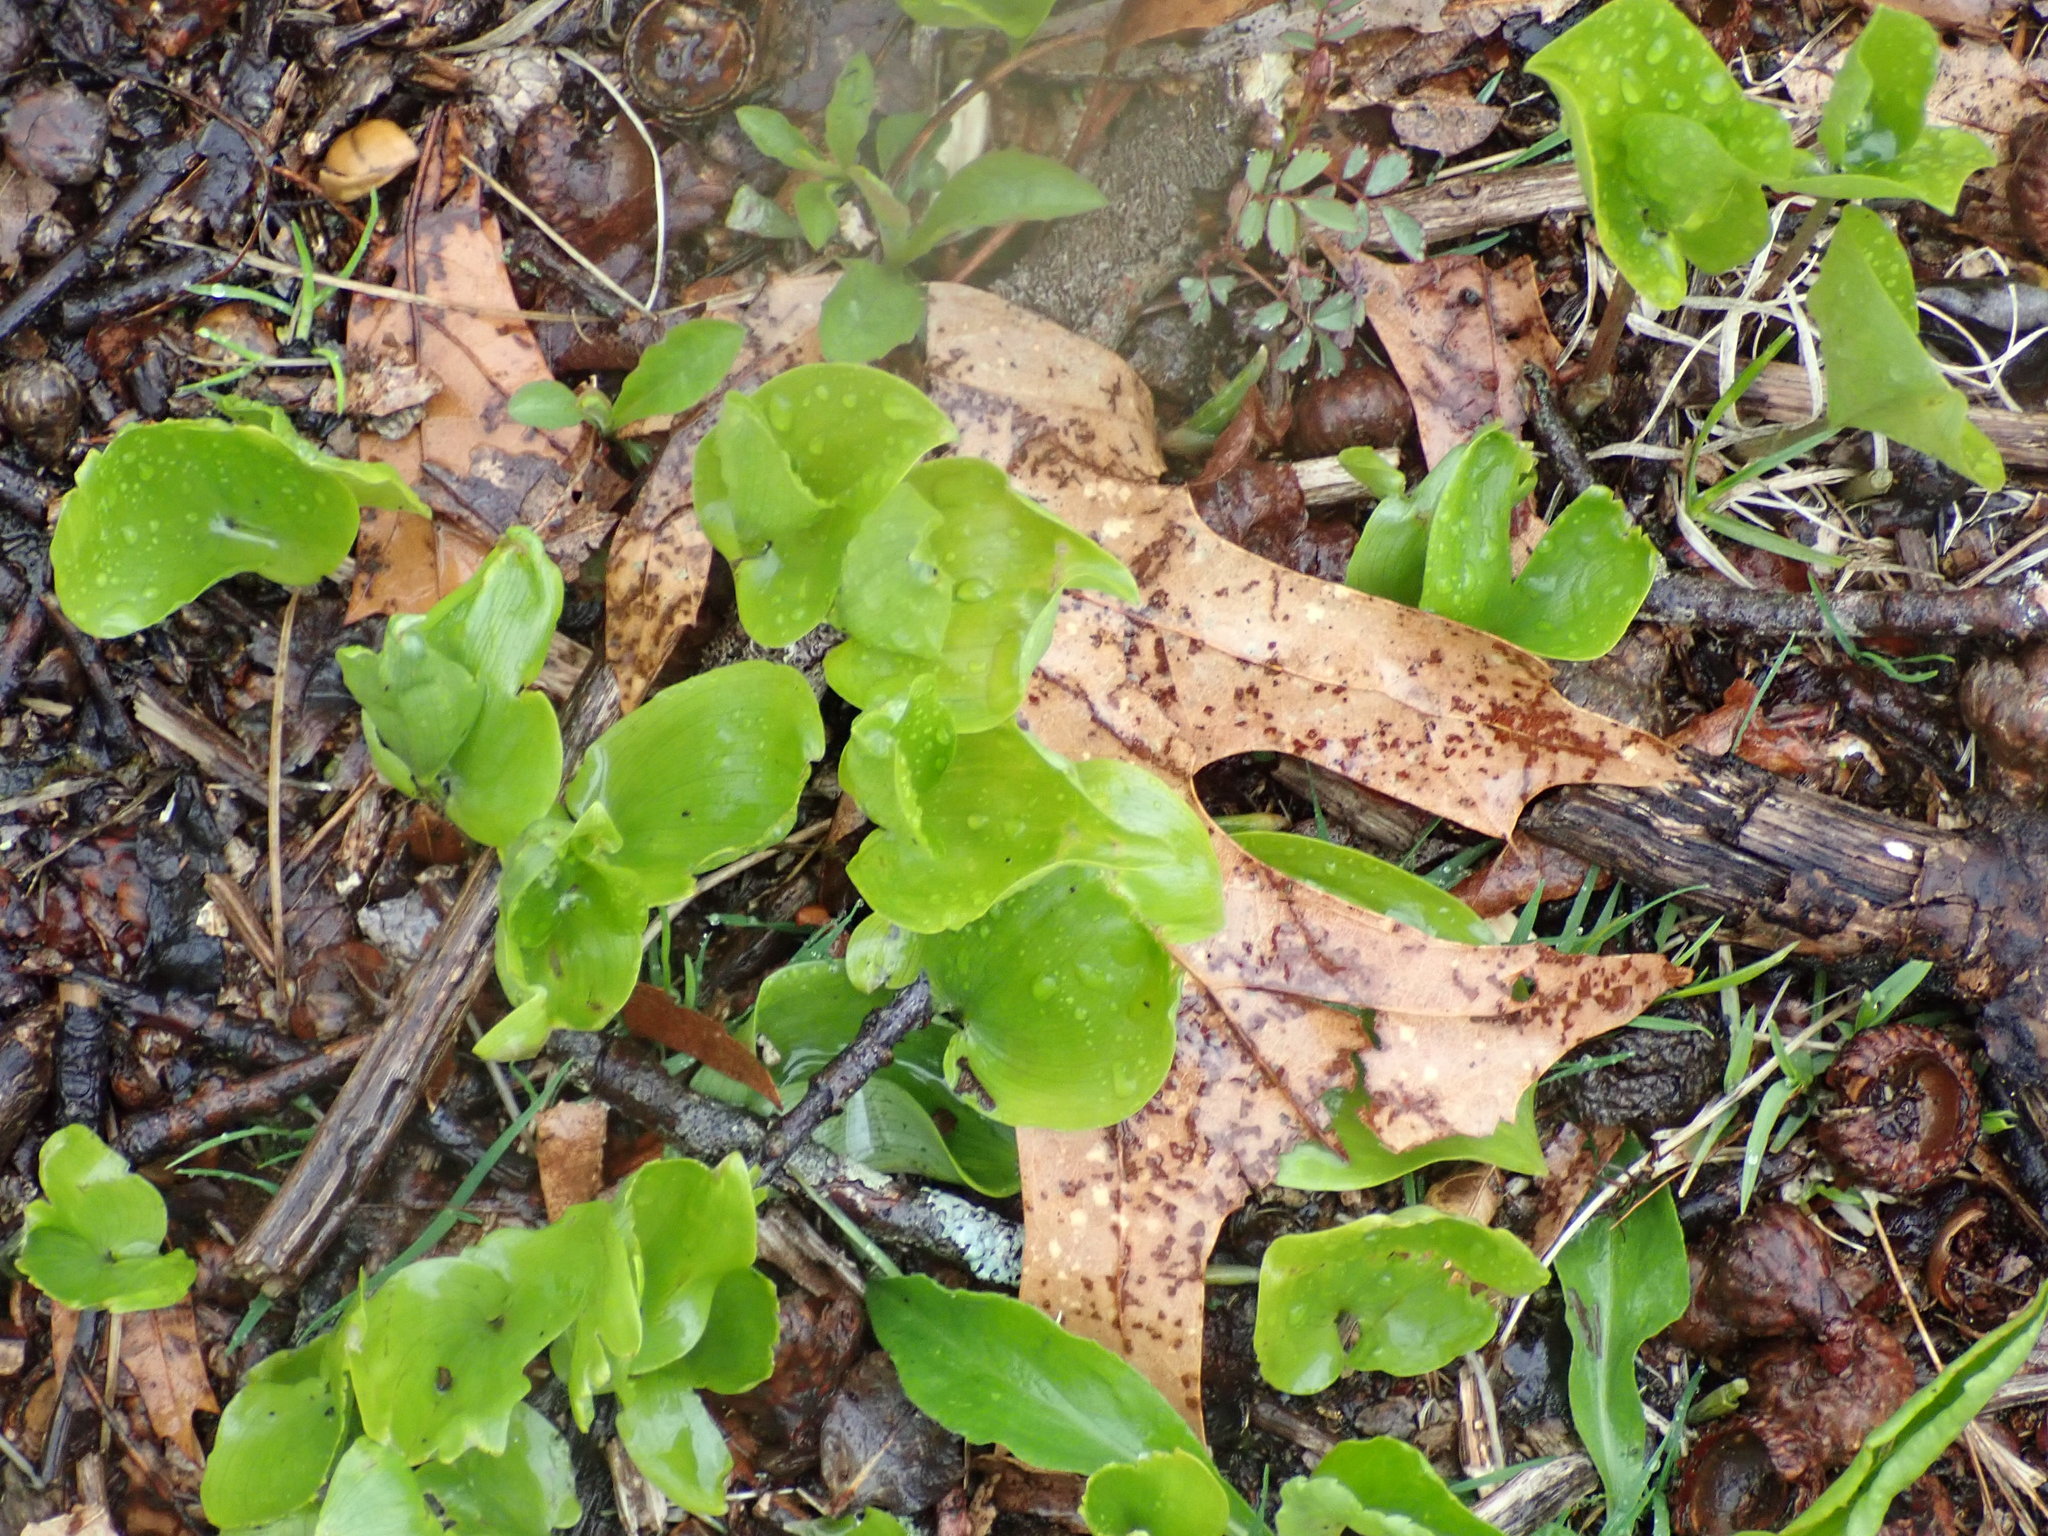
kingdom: Plantae
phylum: Tracheophyta
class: Liliopsida
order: Asparagales
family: Asparagaceae
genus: Maianthemum
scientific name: Maianthemum canadense
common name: False lily-of-the-valley
